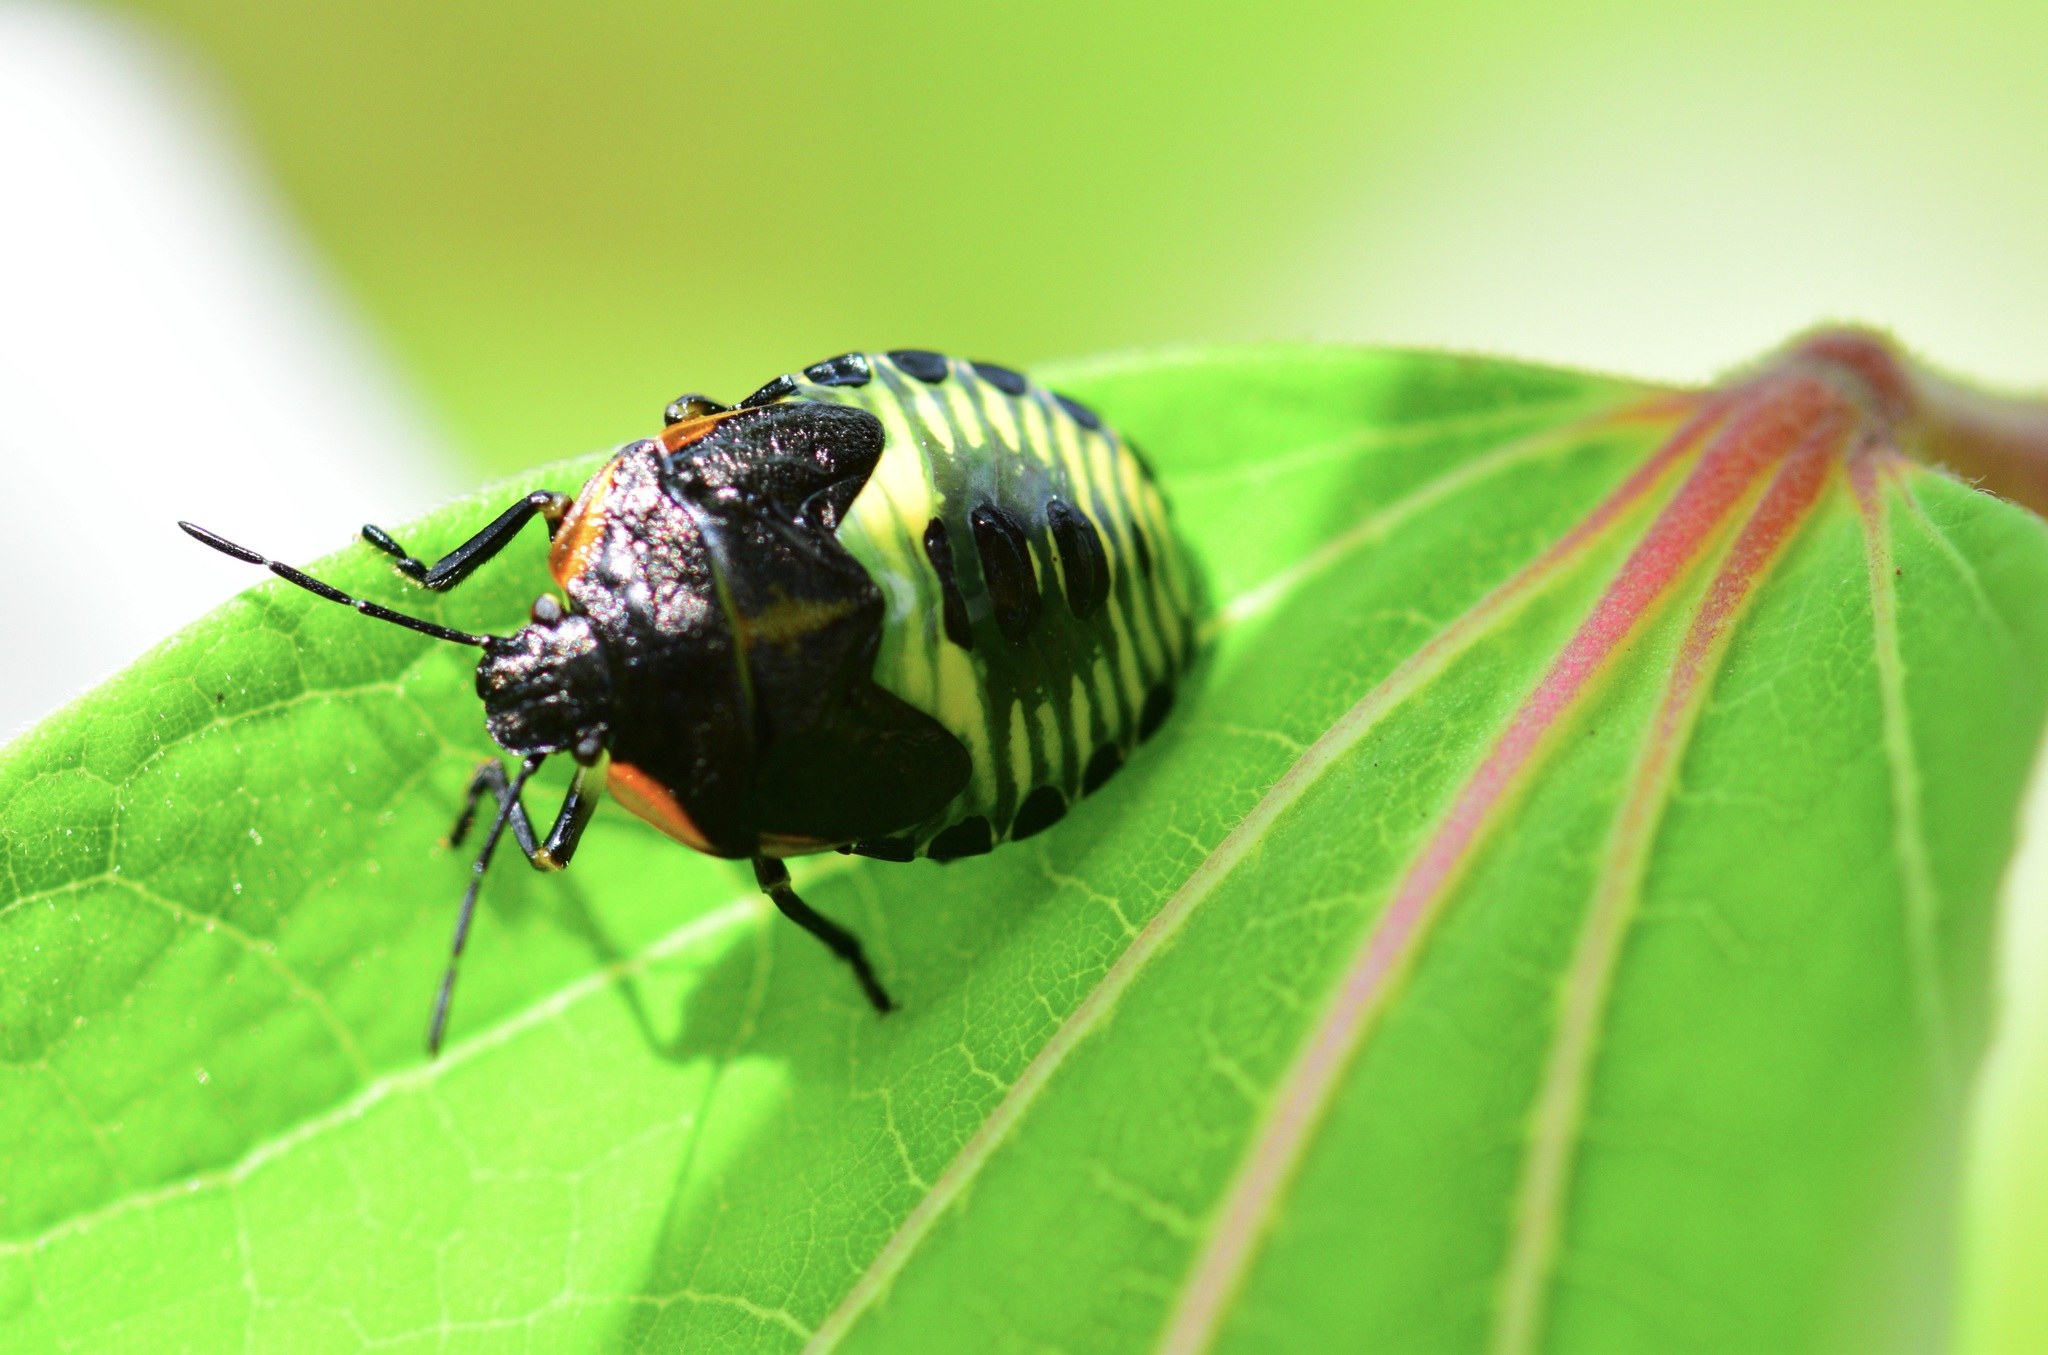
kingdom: Animalia
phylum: Arthropoda
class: Insecta
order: Hemiptera
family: Pentatomidae
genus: Chinavia
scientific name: Chinavia hilaris
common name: Green stink bug
